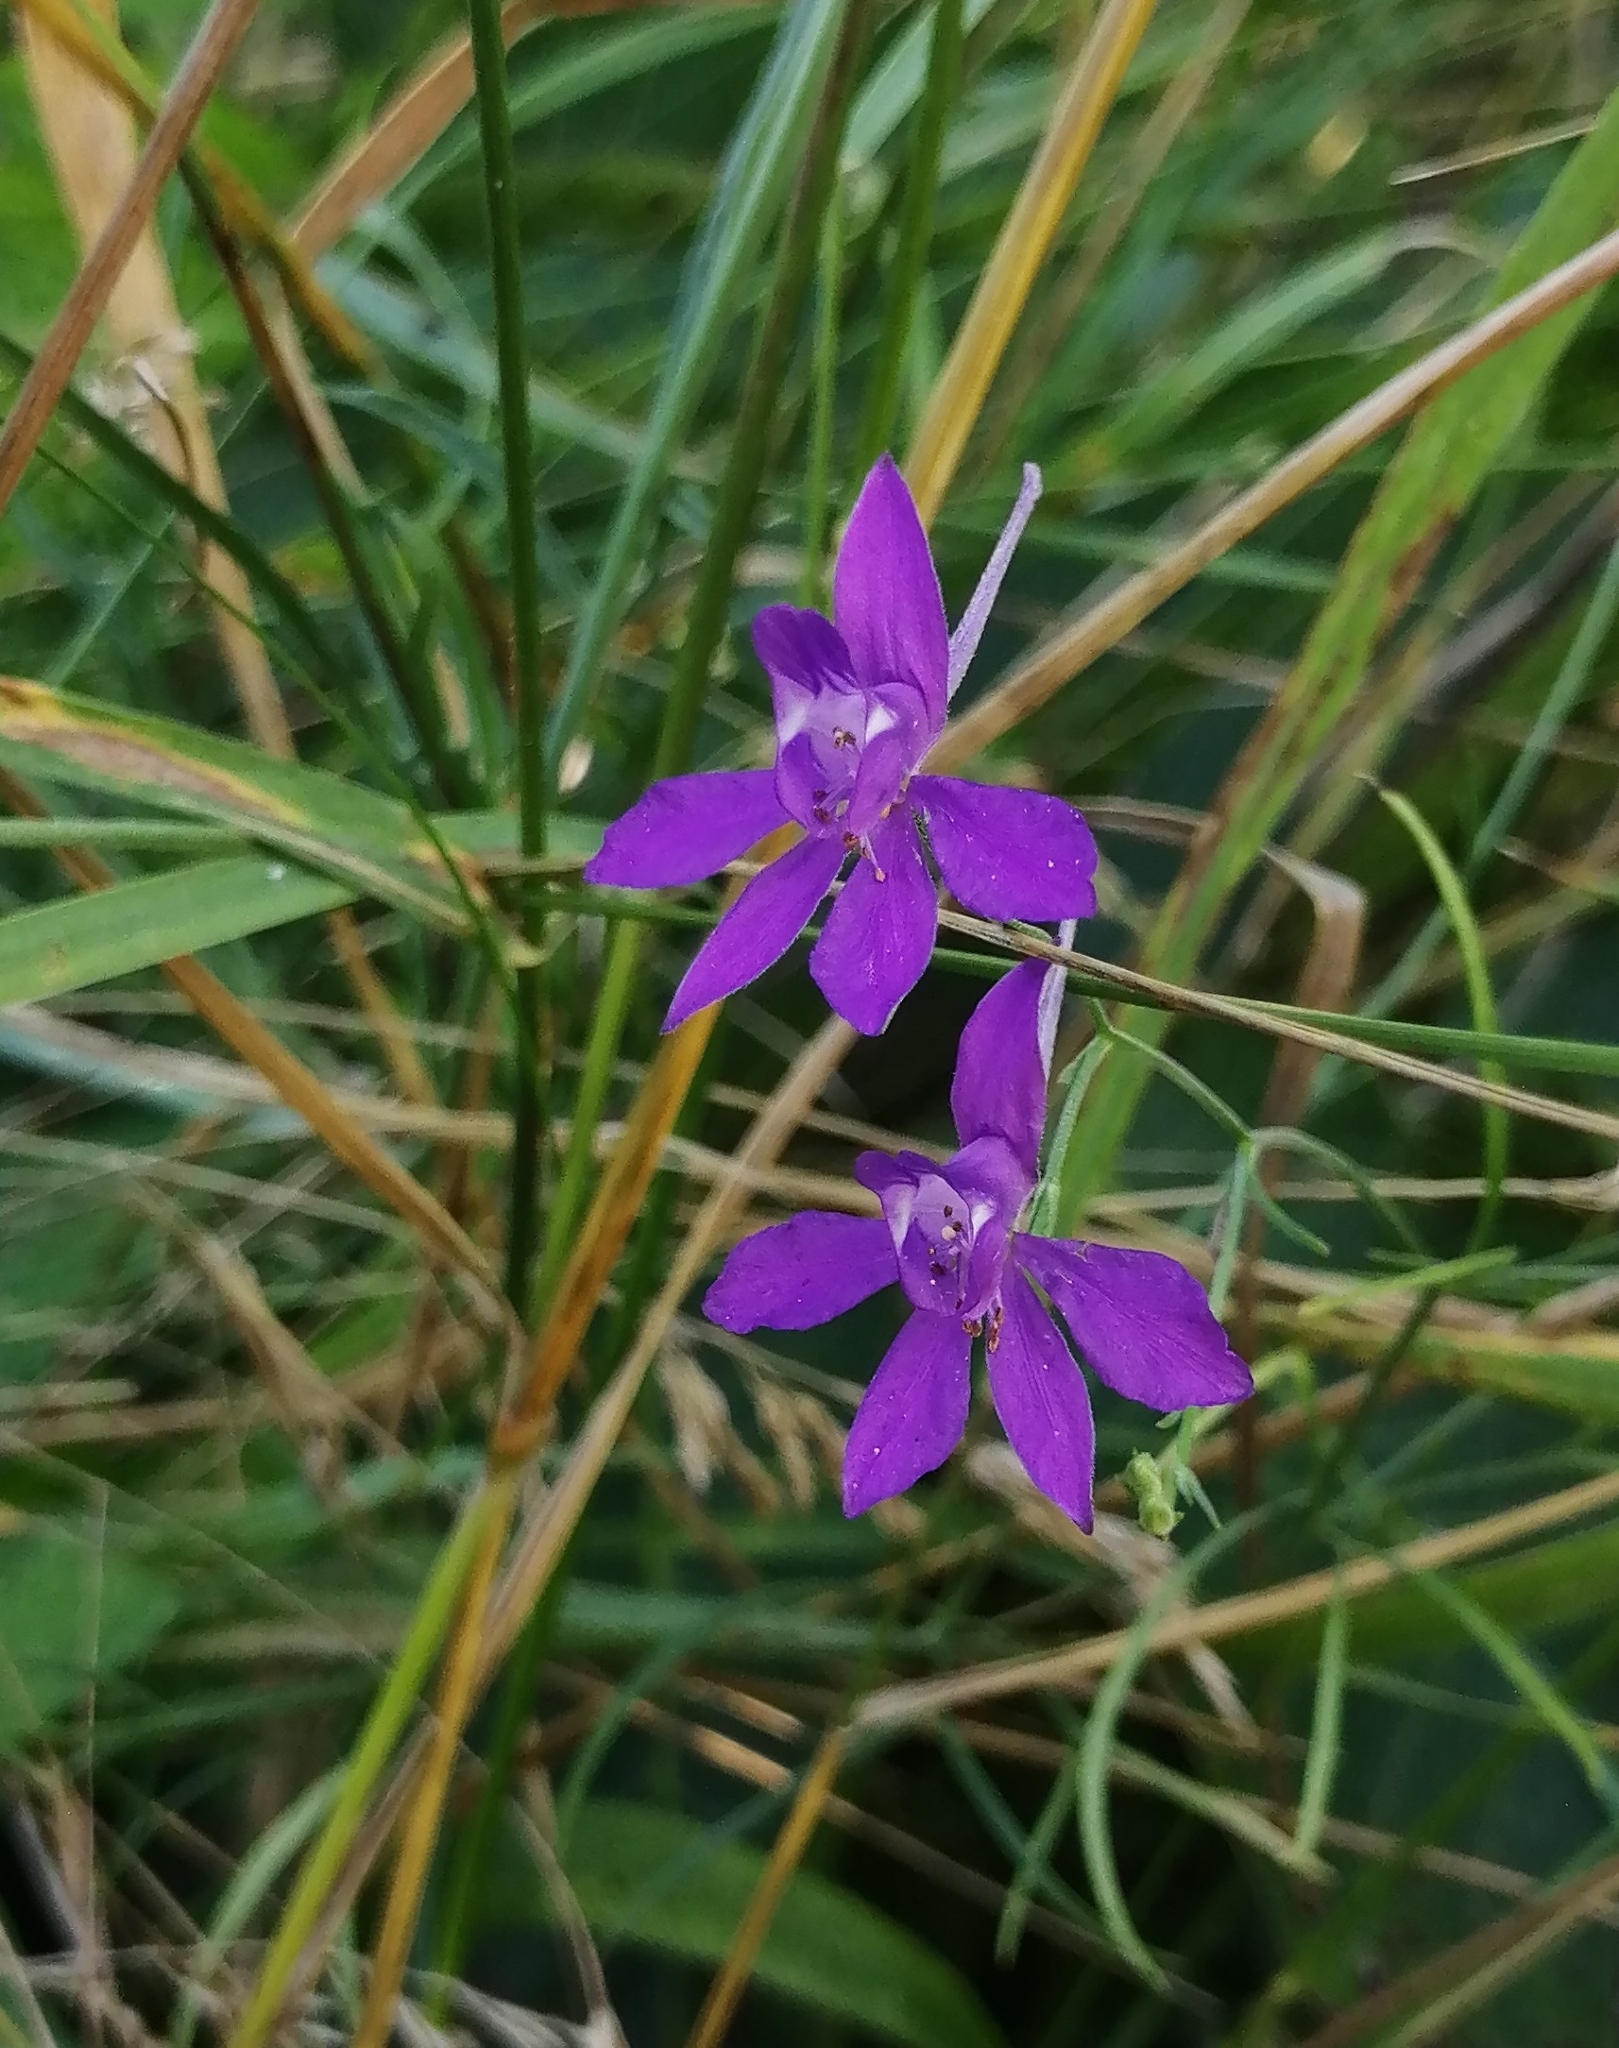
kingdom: Plantae
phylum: Tracheophyta
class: Magnoliopsida
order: Ranunculales
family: Ranunculaceae
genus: Delphinium
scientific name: Delphinium consolida
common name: Branching larkspur
